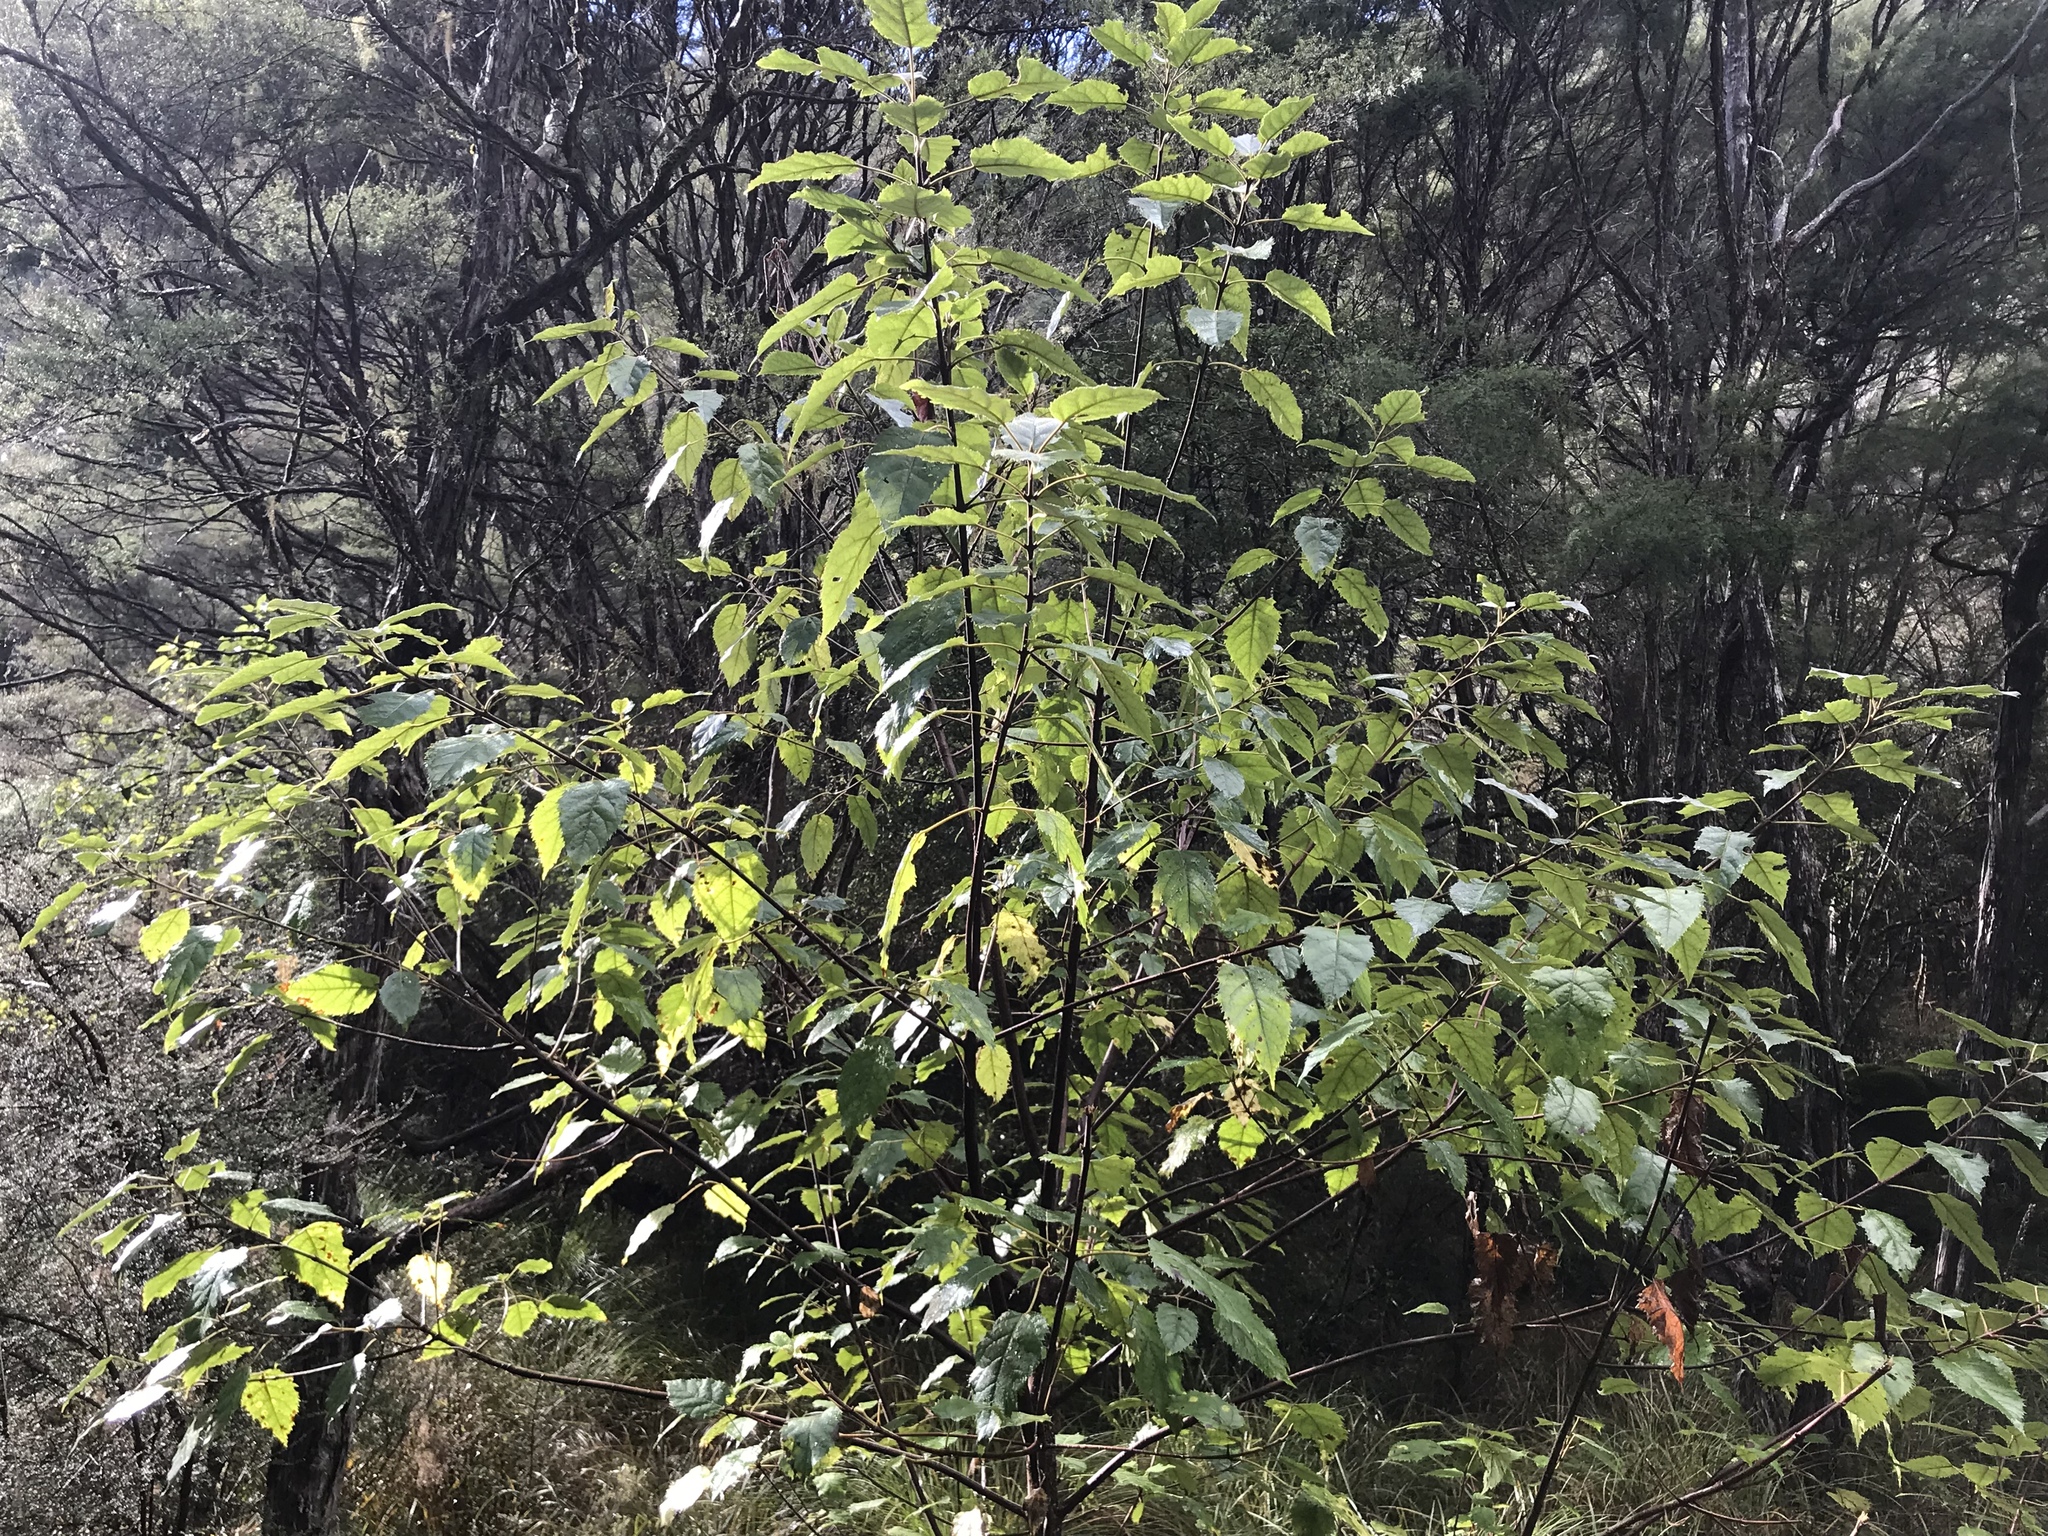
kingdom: Plantae
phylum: Tracheophyta
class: Magnoliopsida
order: Oxalidales
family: Elaeocarpaceae
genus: Aristotelia
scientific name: Aristotelia serrata
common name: New zealand wineberry
